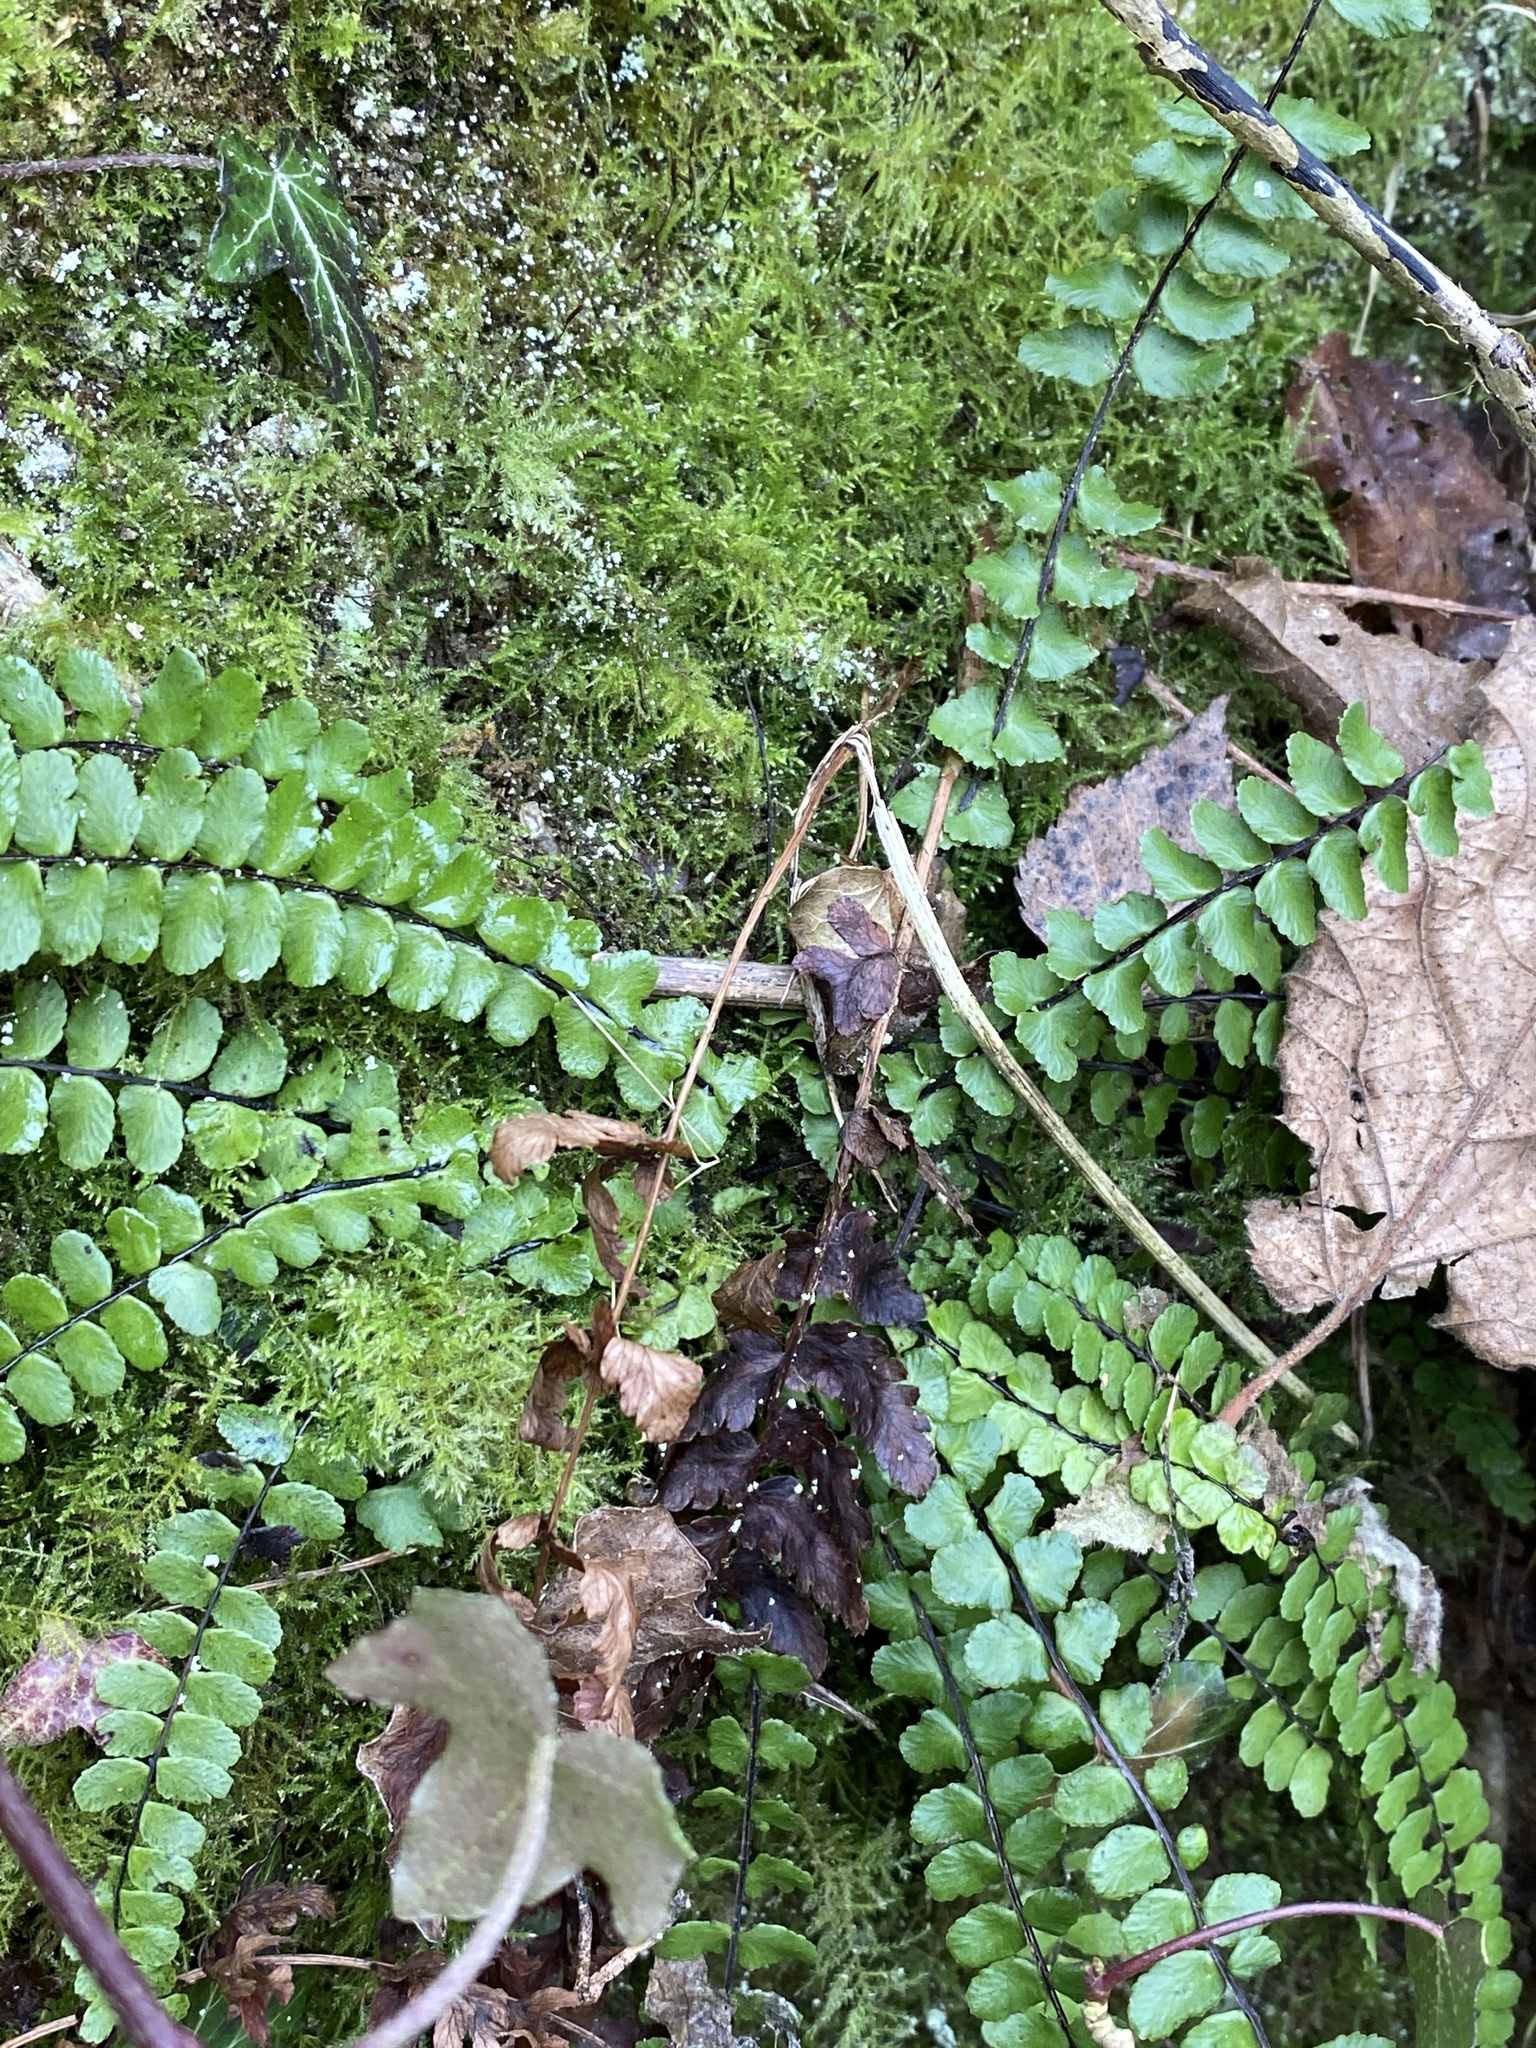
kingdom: Plantae
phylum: Tracheophyta
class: Polypodiopsida
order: Polypodiales
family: Aspleniaceae
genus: Asplenium
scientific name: Asplenium trichomanes
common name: Maidenhair spleenwort
